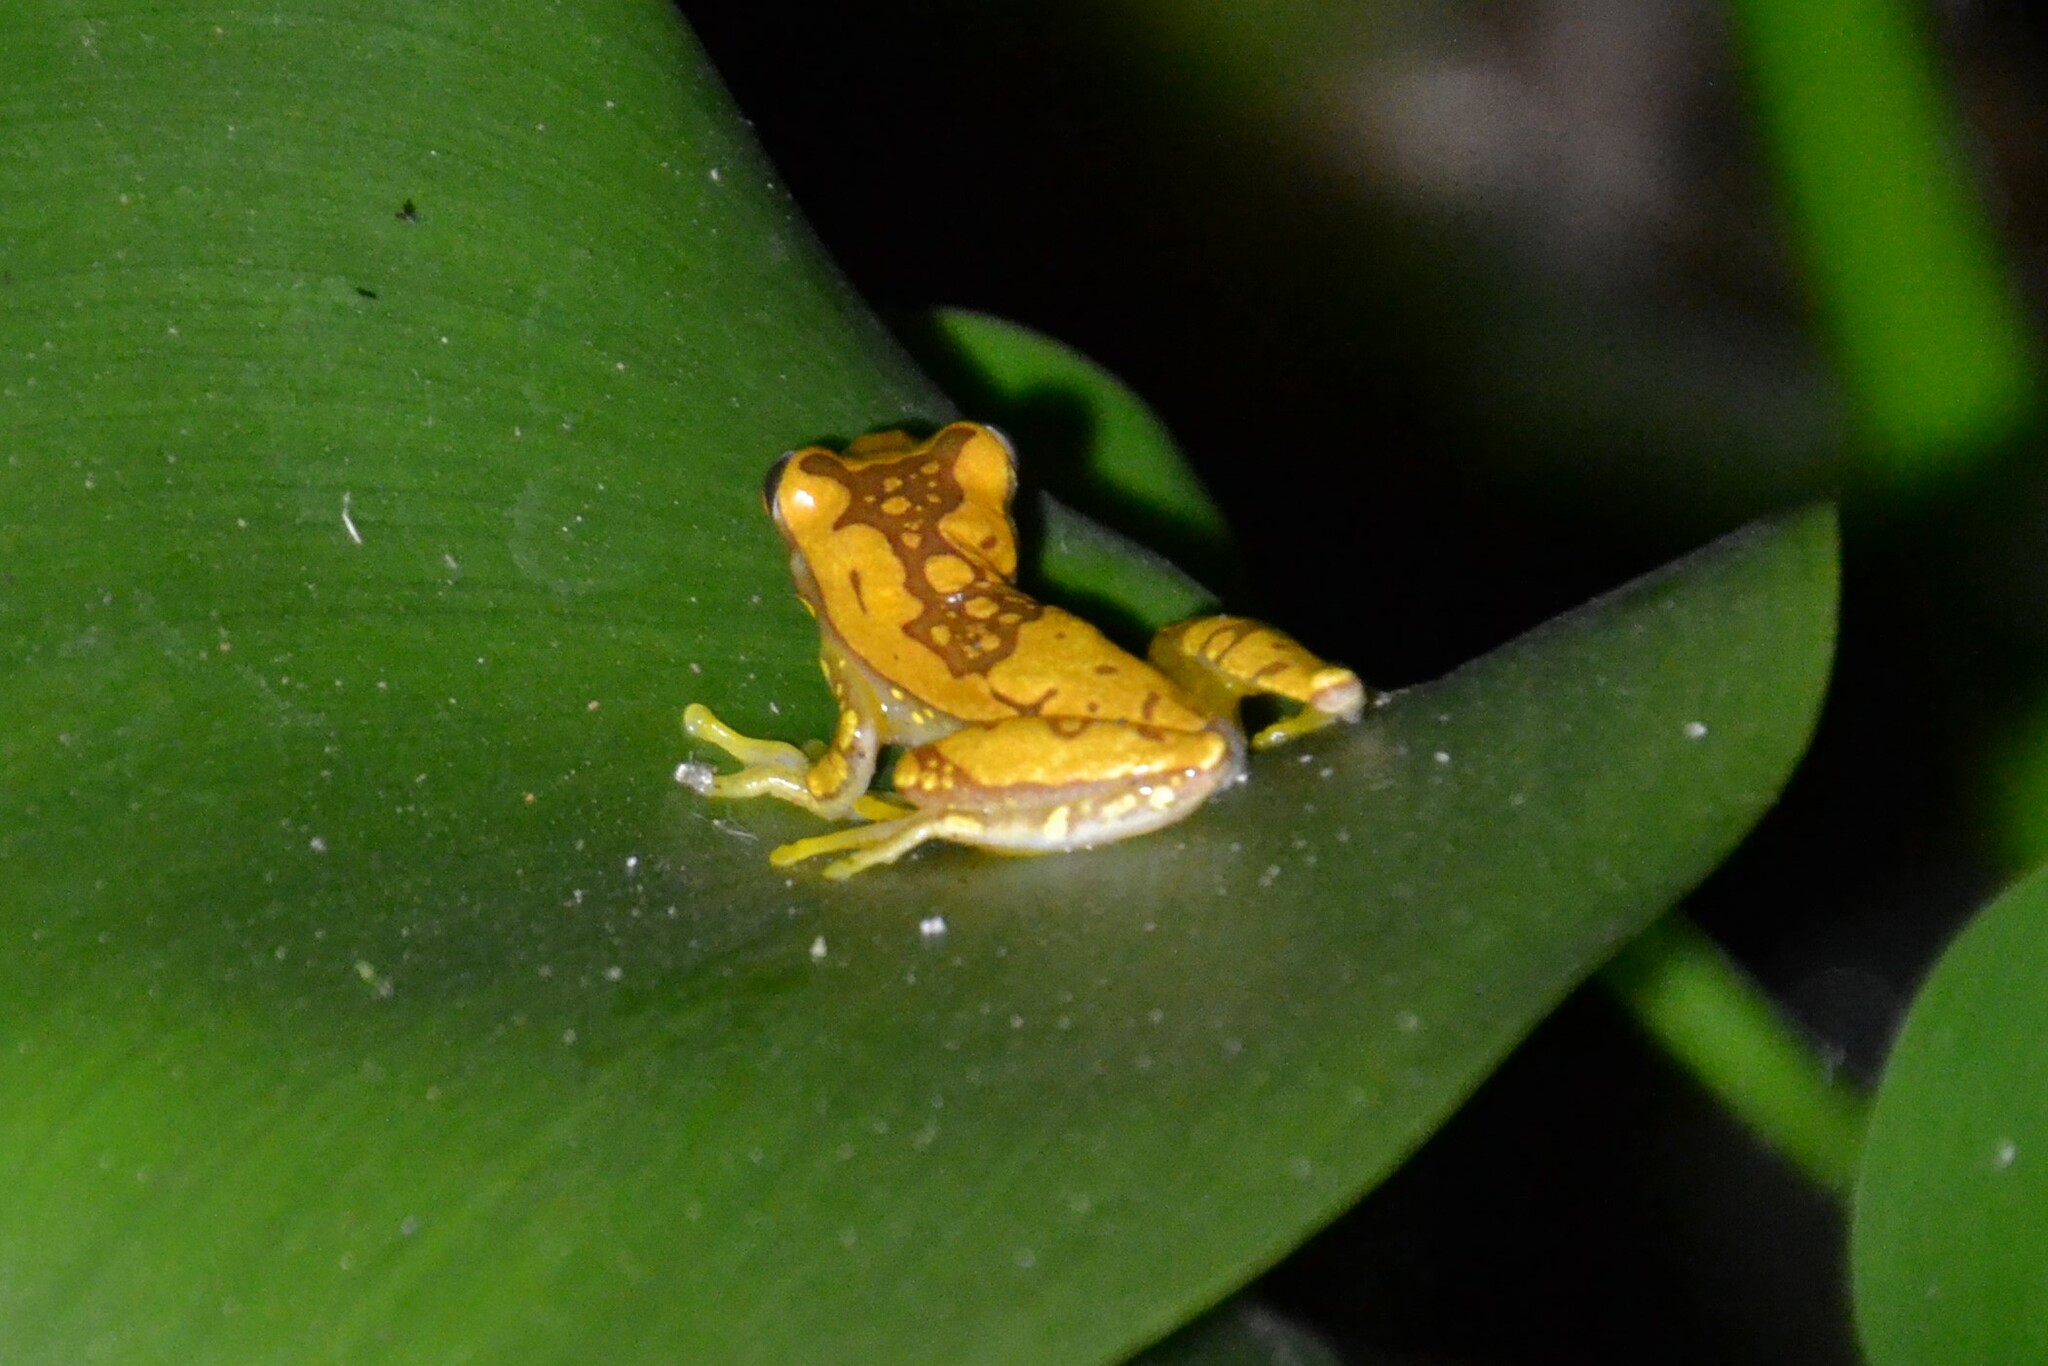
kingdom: Animalia
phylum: Chordata
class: Amphibia
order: Anura
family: Hylidae
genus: Dendropsophus
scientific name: Dendropsophus ebraccatus
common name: Hourglass treefrog
